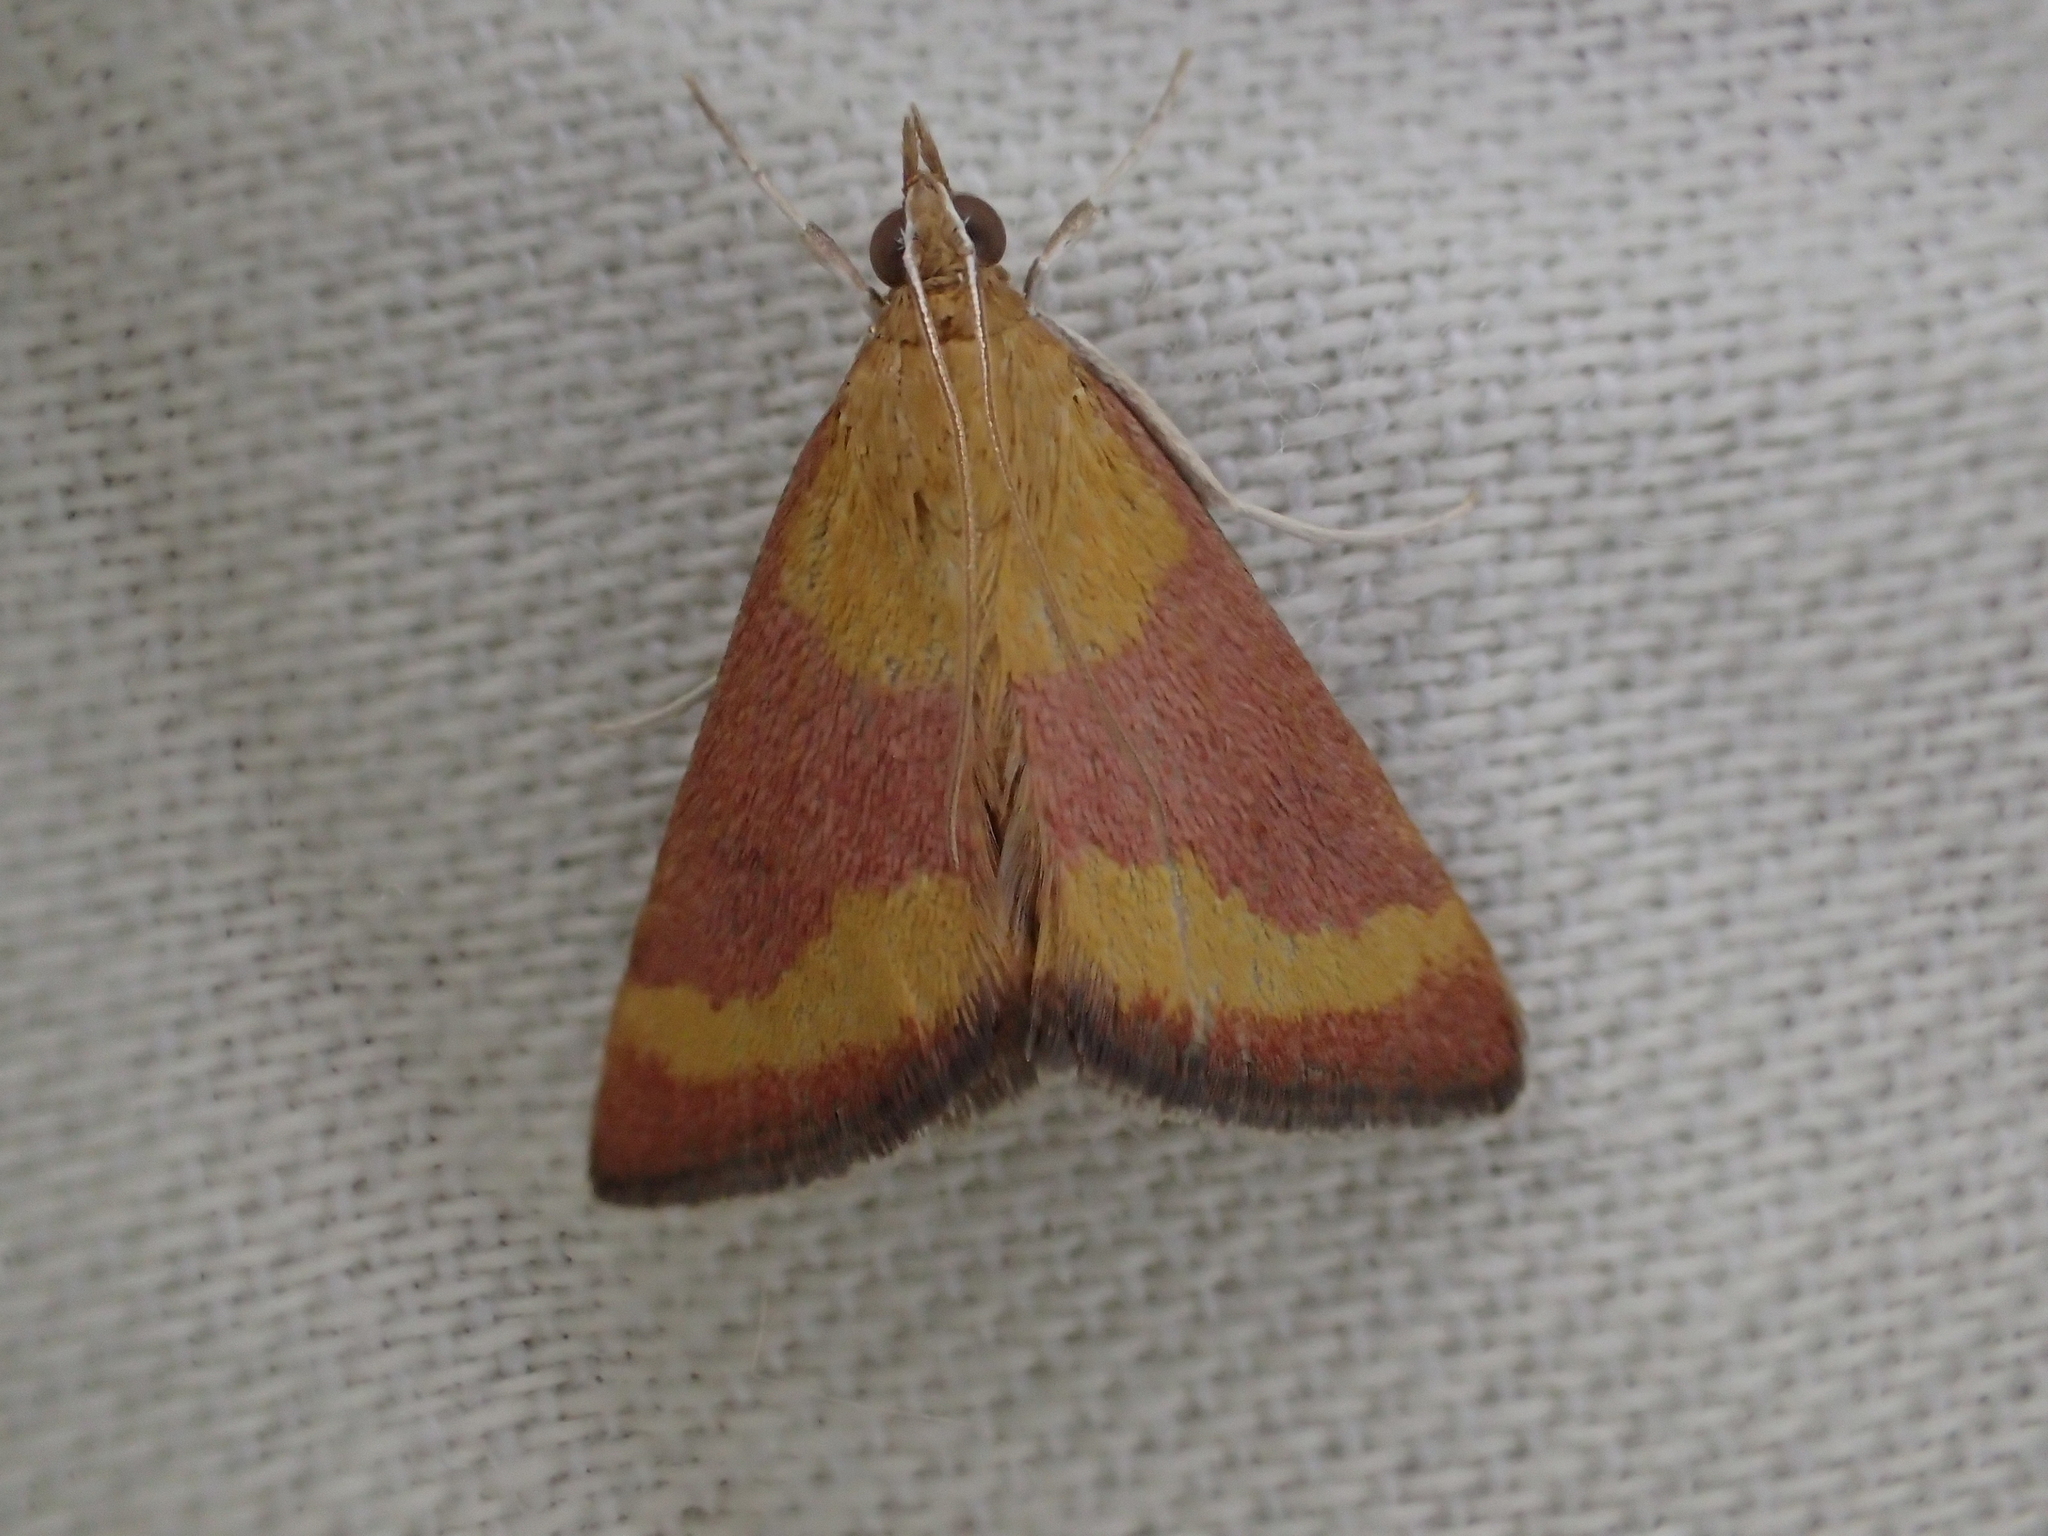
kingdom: Animalia
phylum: Arthropoda
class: Insecta
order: Lepidoptera
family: Crambidae
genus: Pyrausta
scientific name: Pyrausta castalis
